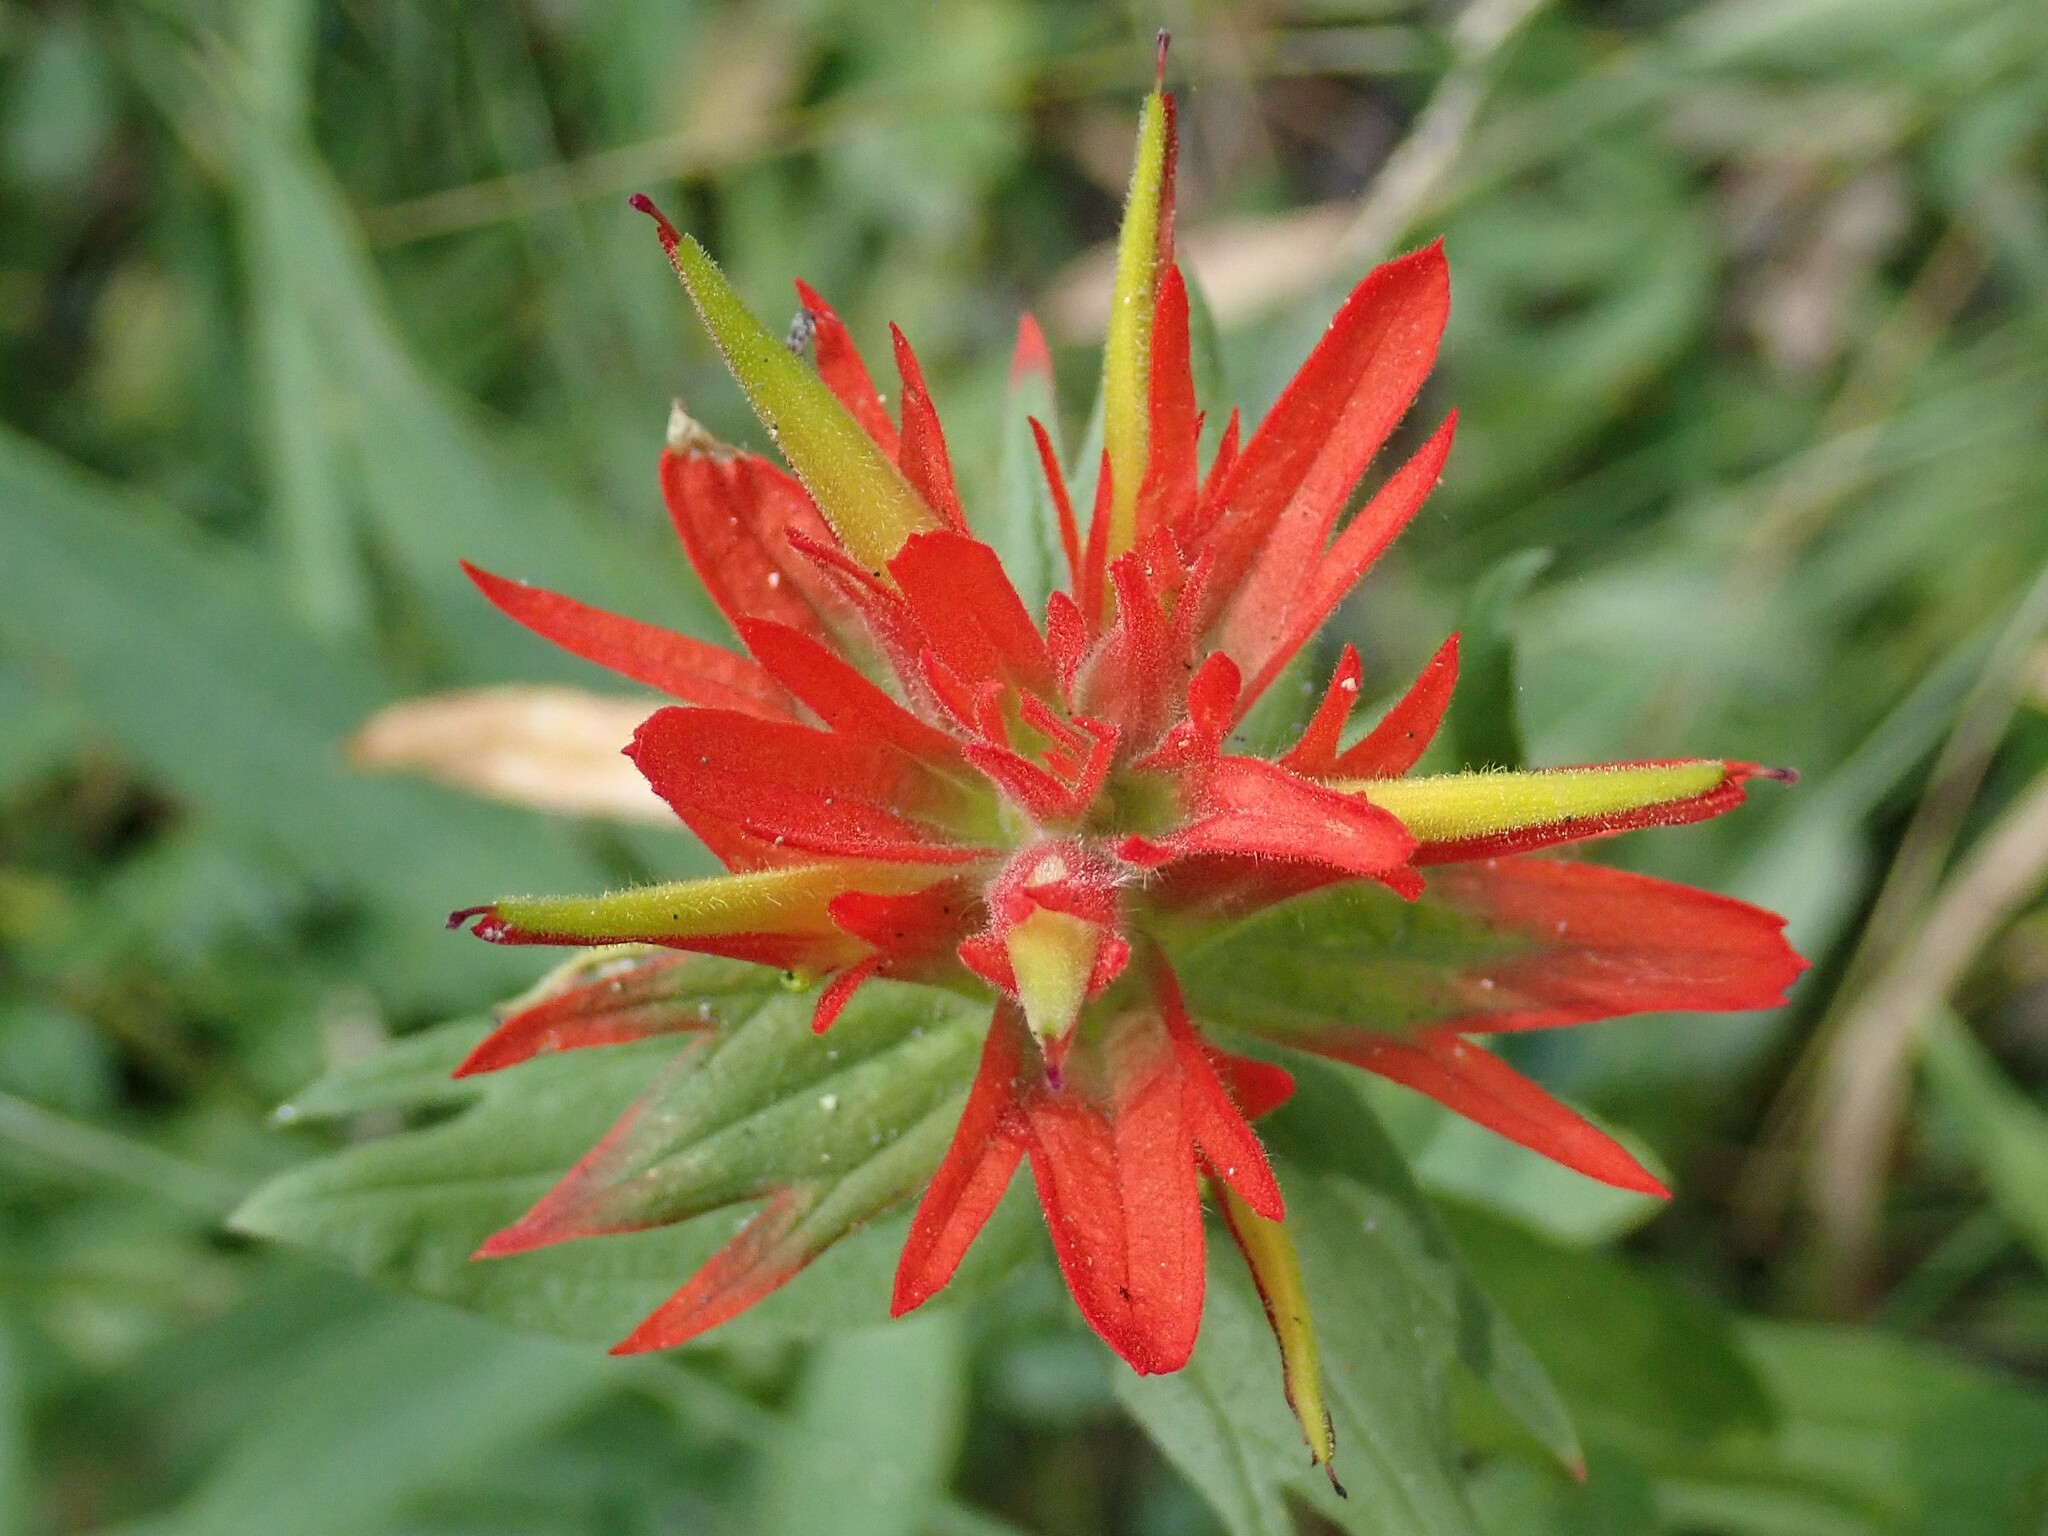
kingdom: Plantae
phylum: Tracheophyta
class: Magnoliopsida
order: Lamiales
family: Orobanchaceae
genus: Castilleja
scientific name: Castilleja miniata
